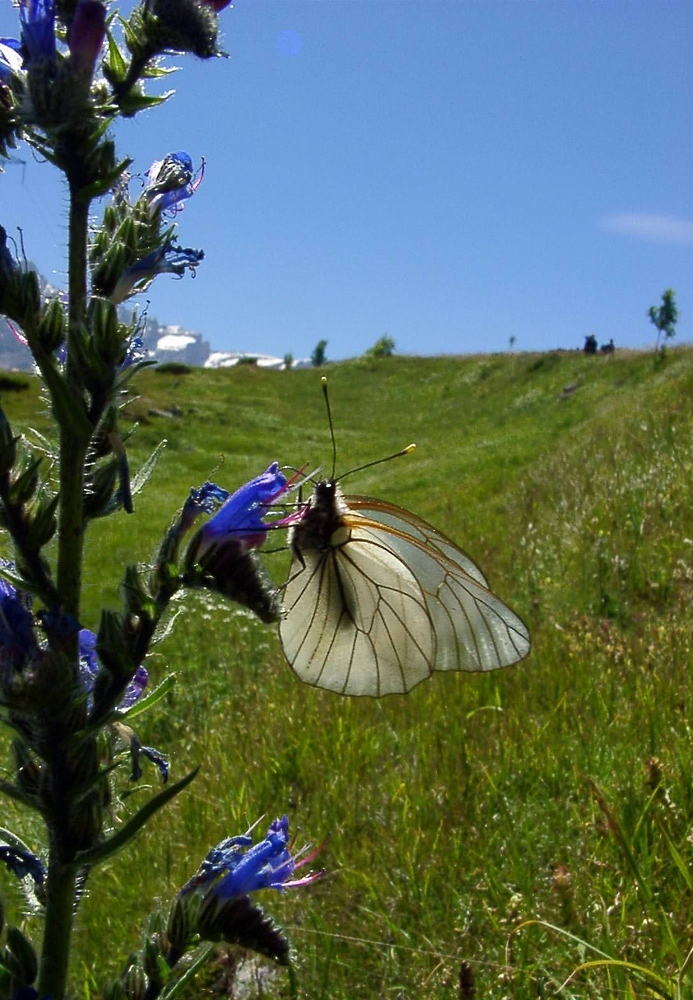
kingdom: Animalia
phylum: Arthropoda
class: Insecta
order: Lepidoptera
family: Pieridae
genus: Aporia
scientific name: Aporia crataegi
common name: Black-veined white
